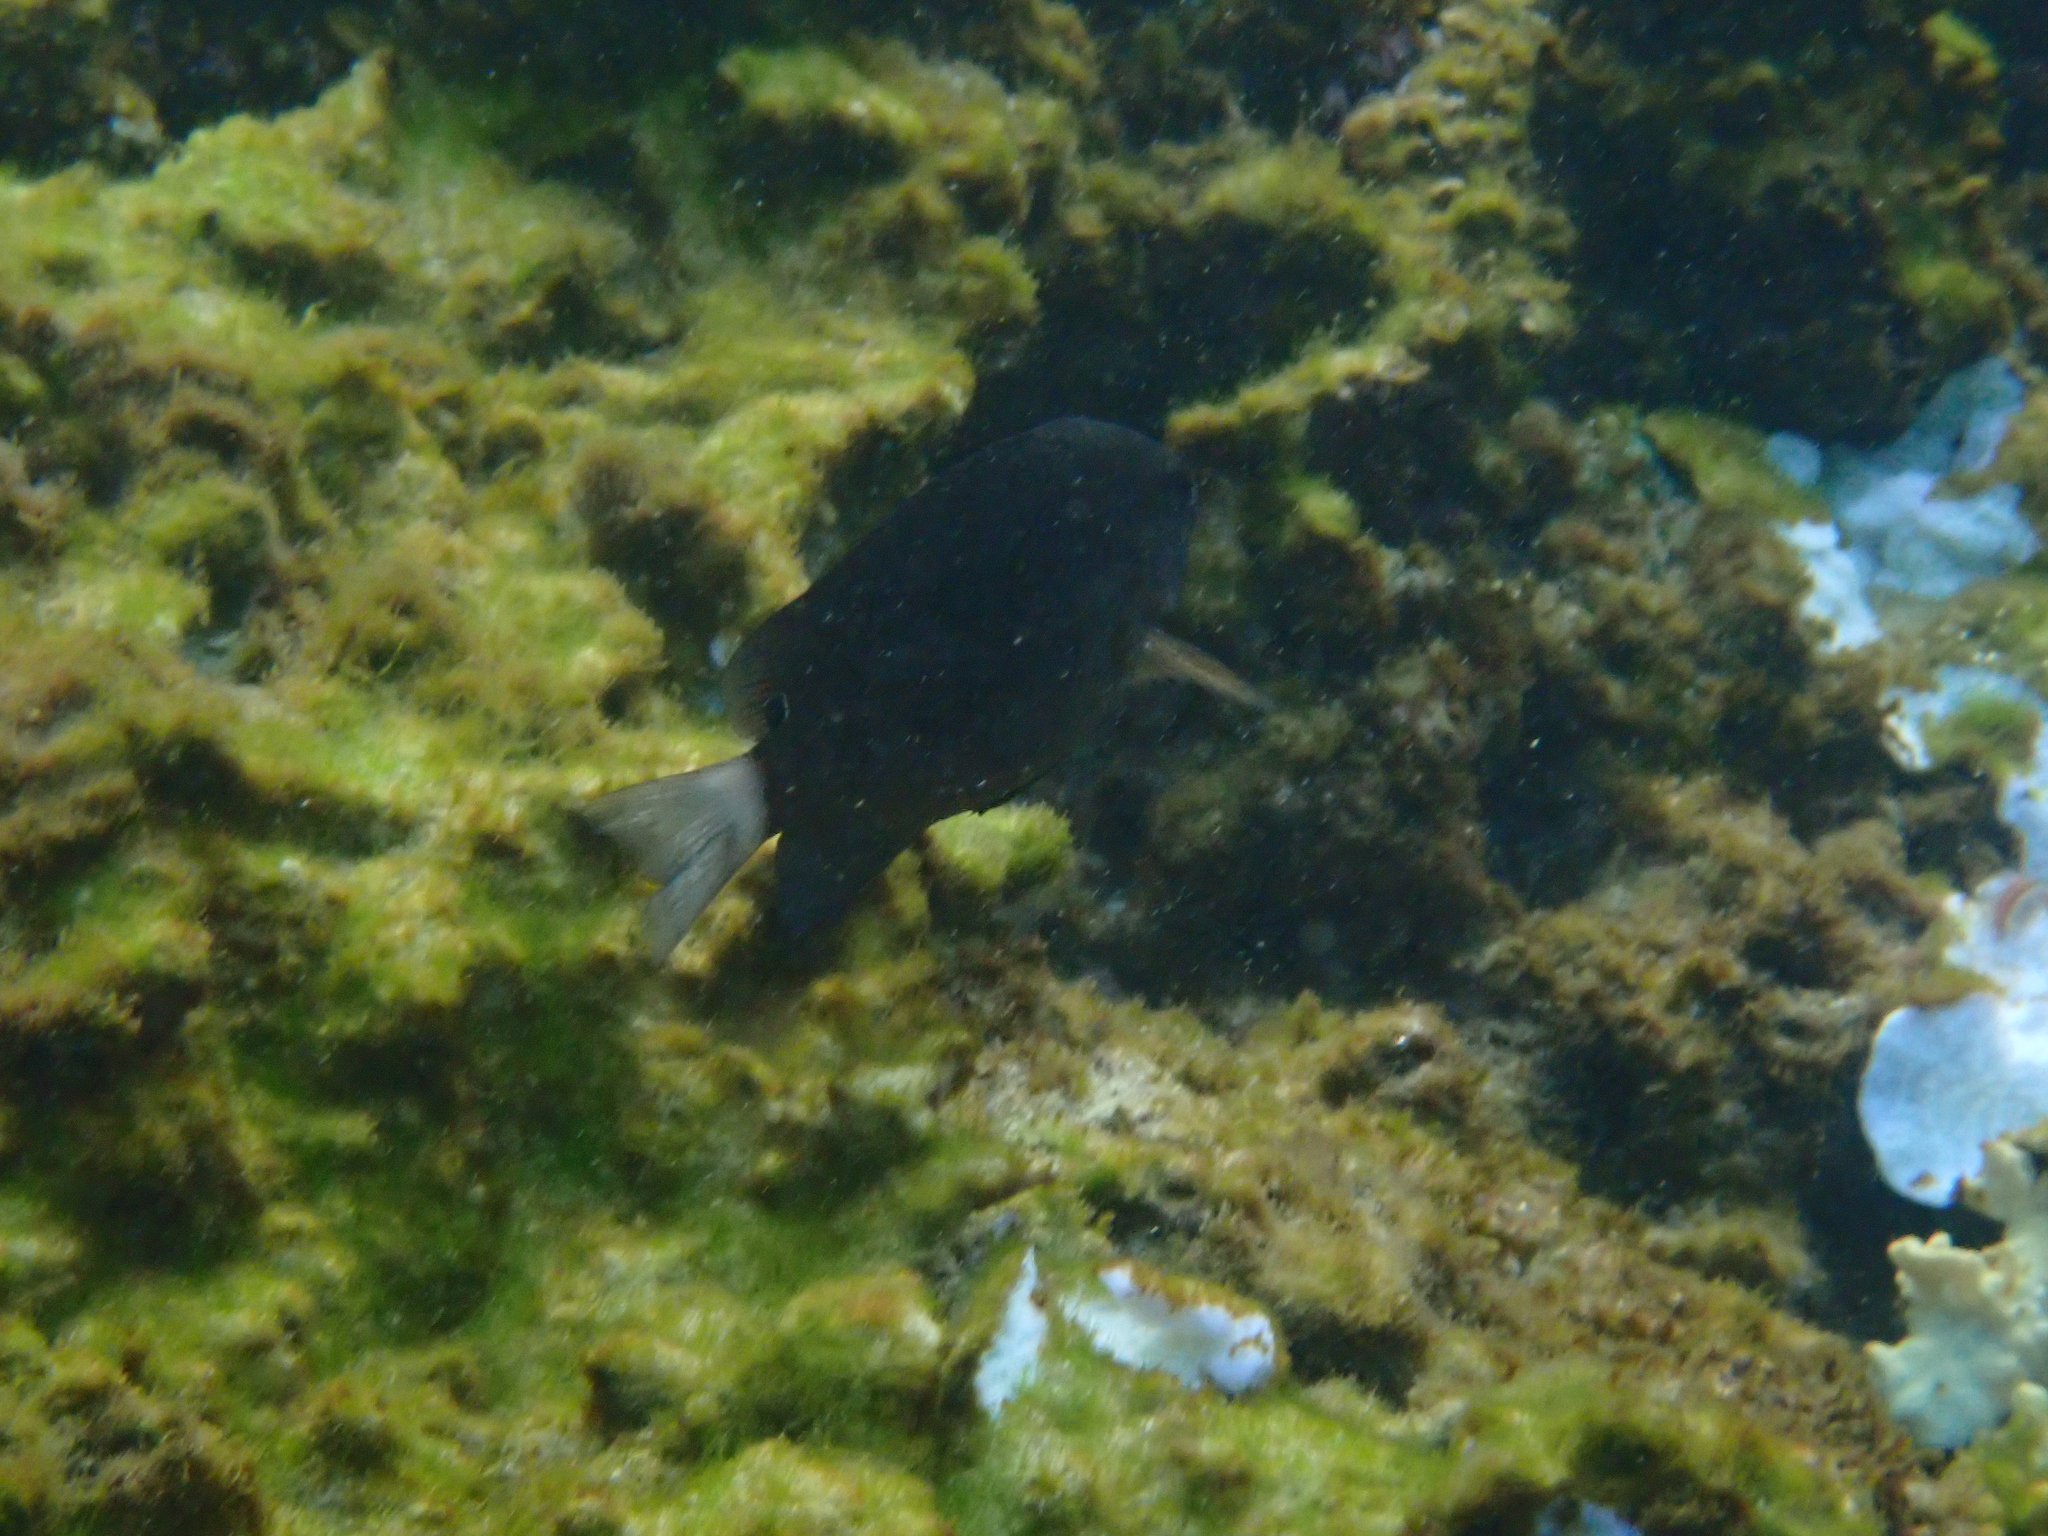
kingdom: Animalia
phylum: Chordata
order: Perciformes
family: Pomacentridae
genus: Pomacentrus
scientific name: Pomacentrus bankanensis
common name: Speckled damsel
